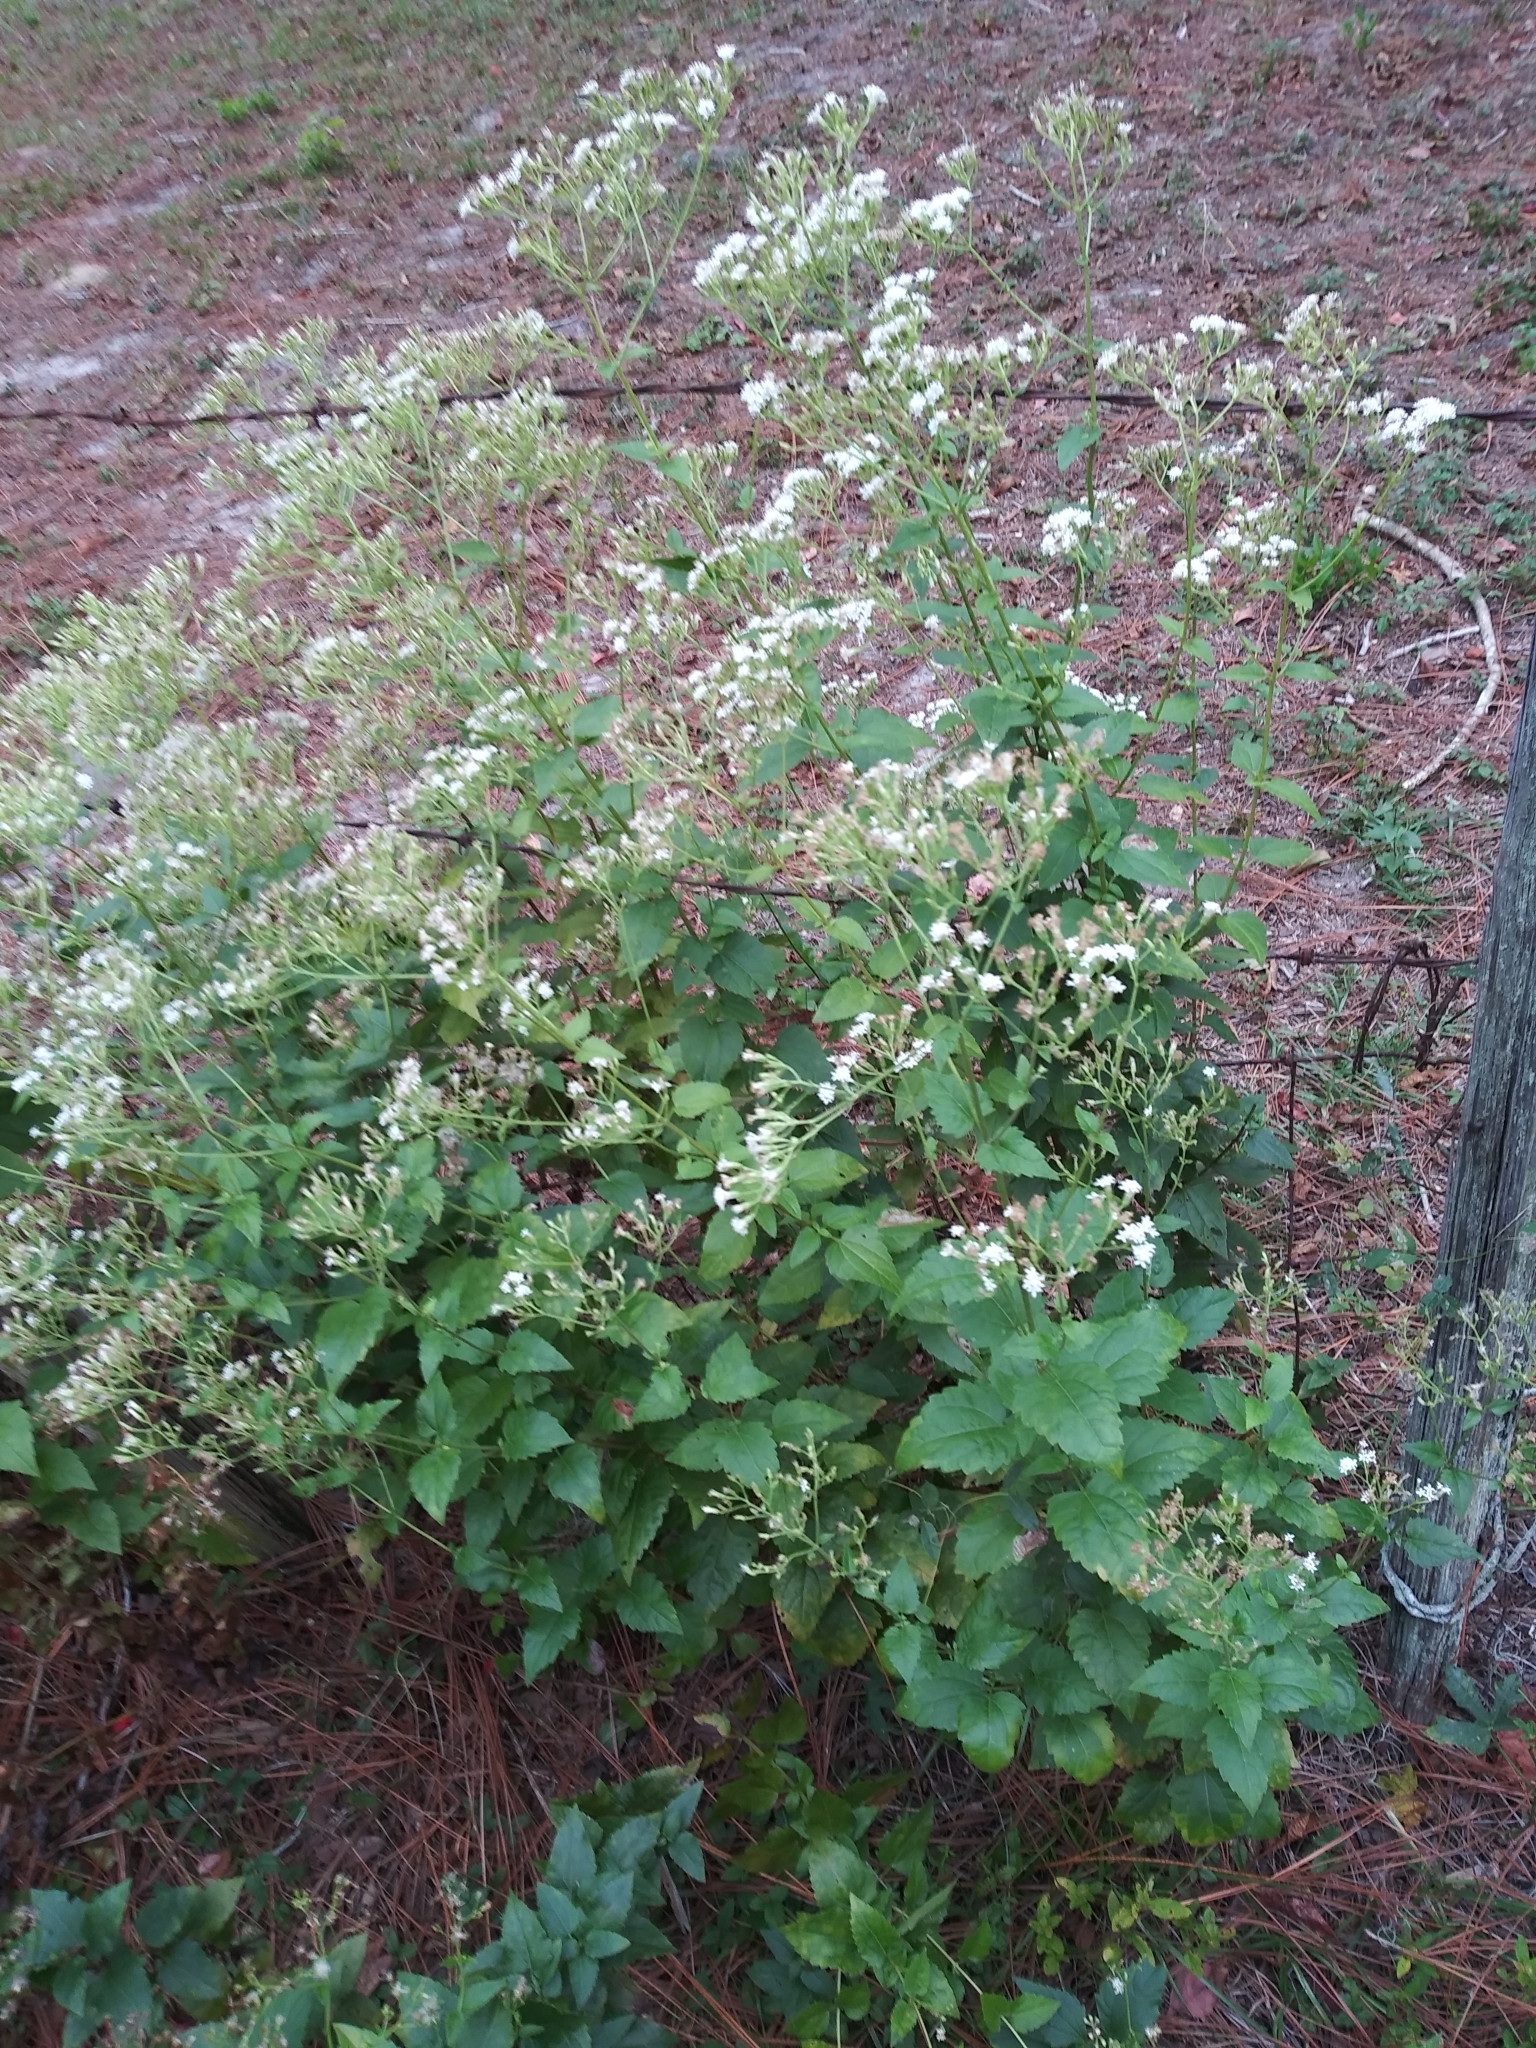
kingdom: Plantae
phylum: Tracheophyta
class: Magnoliopsida
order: Asterales
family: Asteraceae
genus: Ageratina
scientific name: Ageratina jucunda
